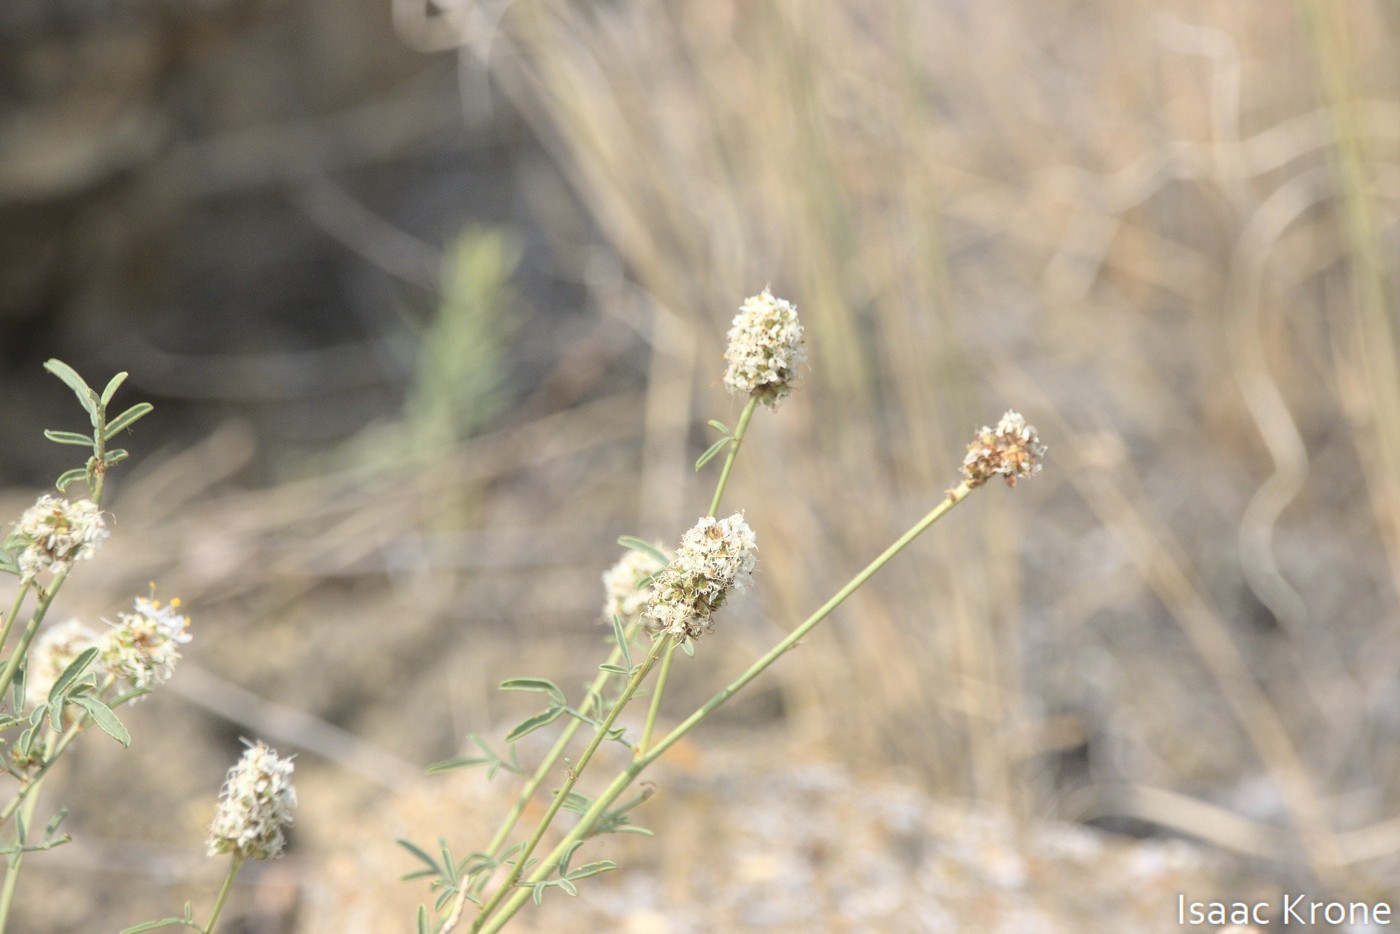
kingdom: Plantae
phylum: Tracheophyta
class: Magnoliopsida
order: Fabales
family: Fabaceae
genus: Dalea
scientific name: Dalea candida
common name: White prairie-clover
